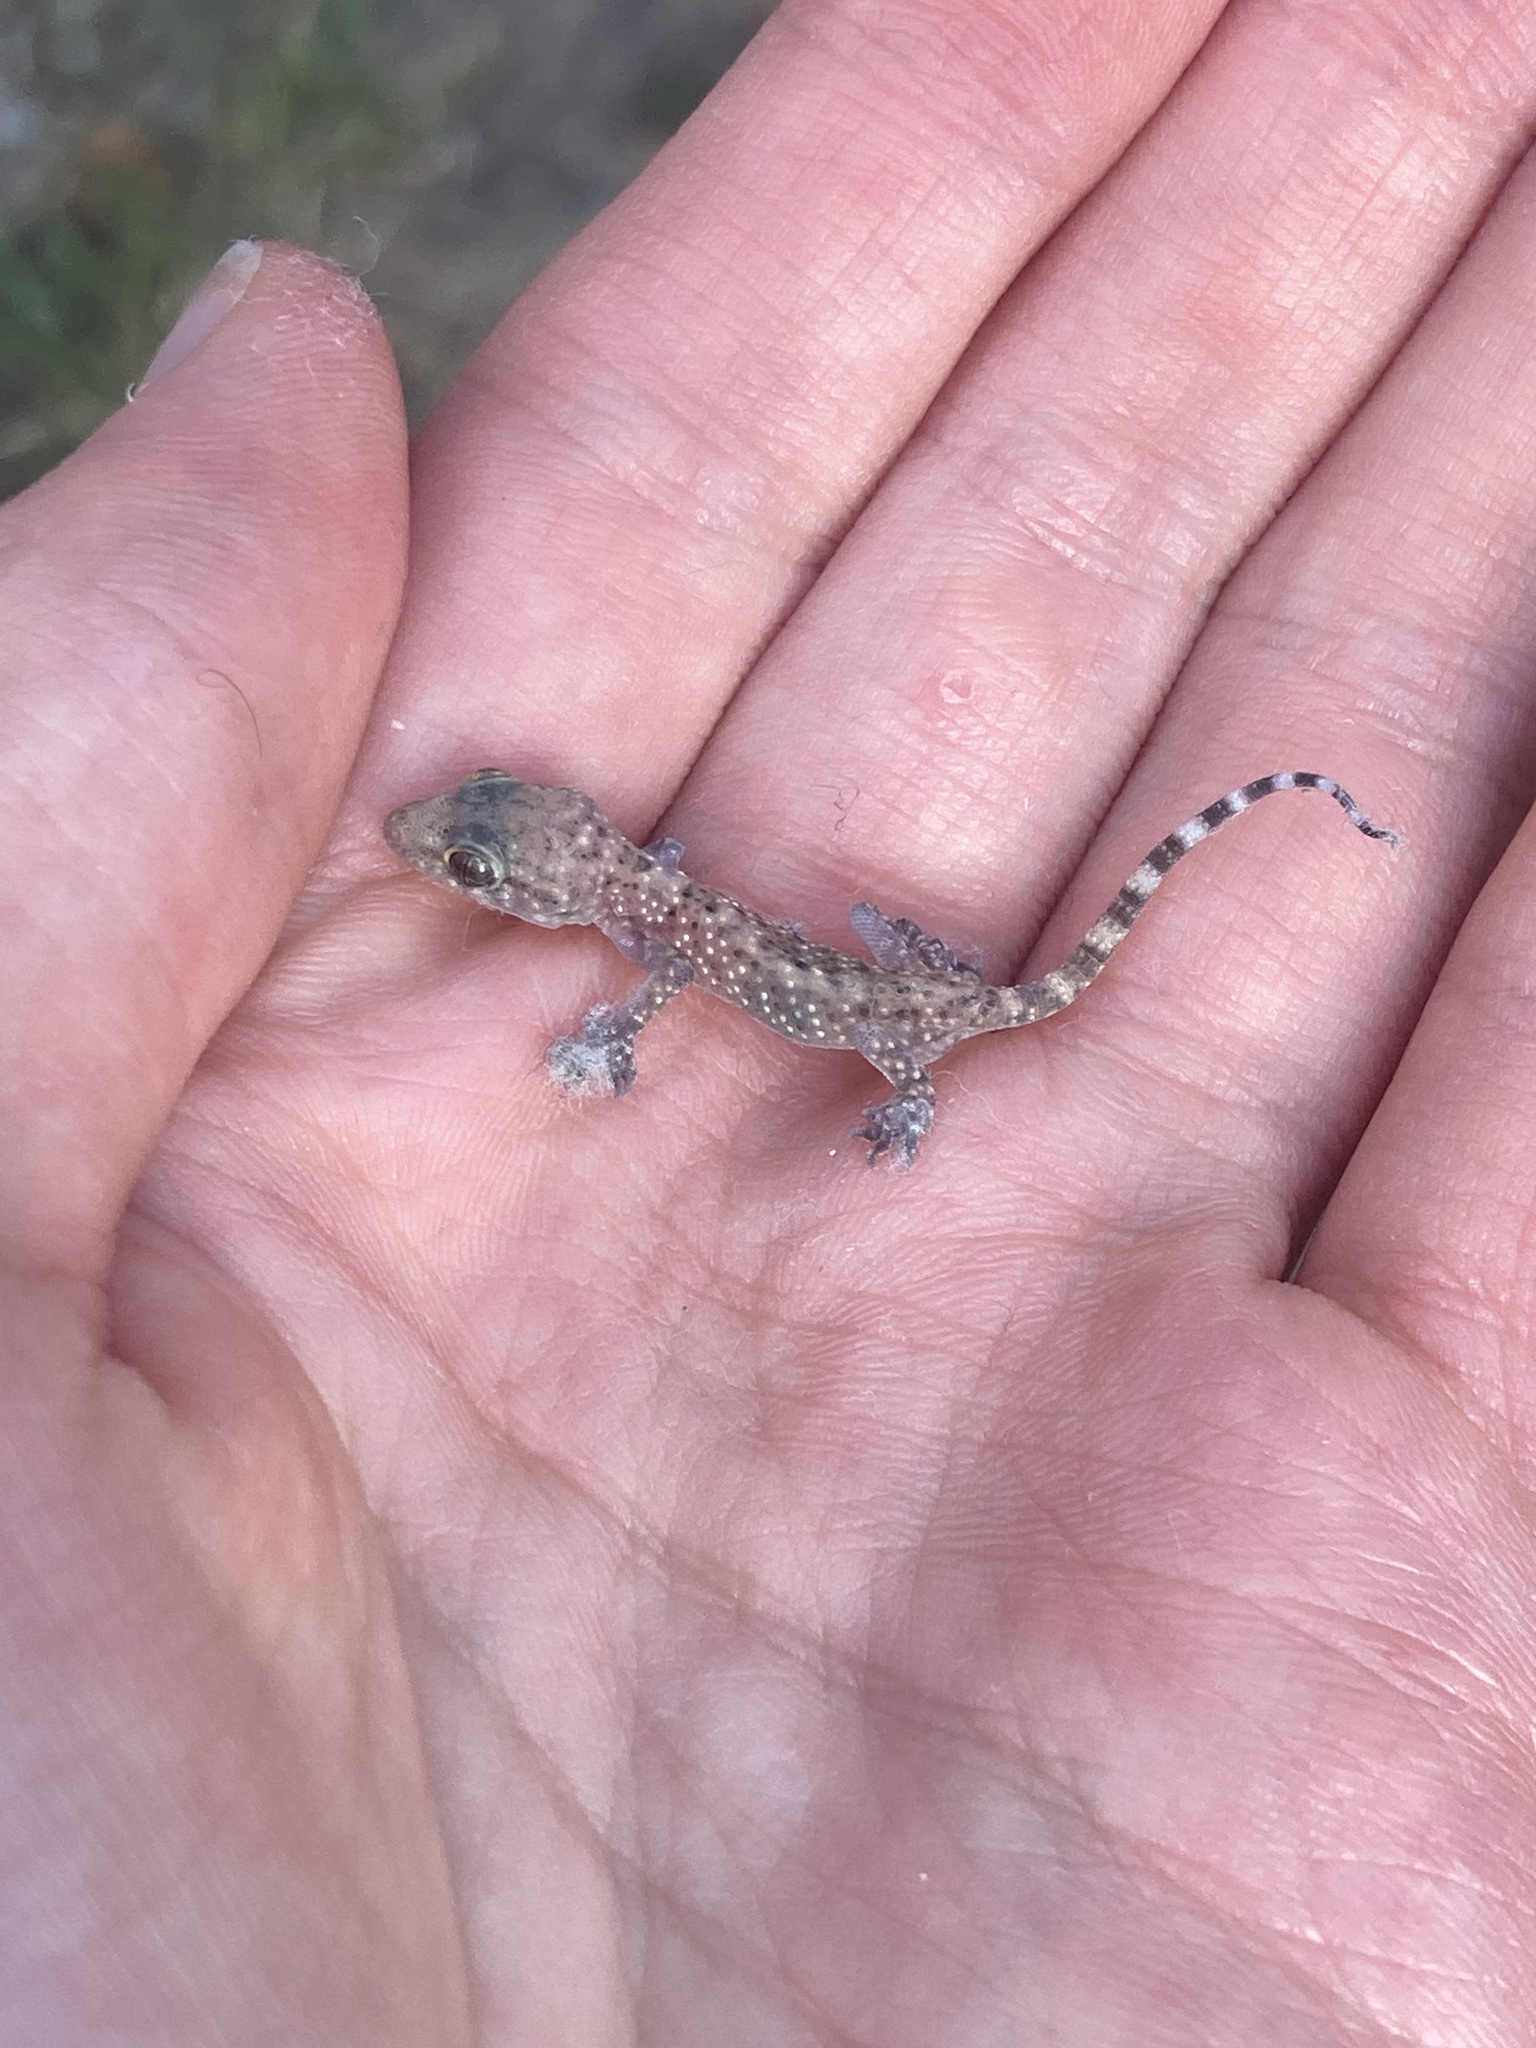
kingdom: Animalia
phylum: Chordata
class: Squamata
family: Gekkonidae
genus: Hemidactylus
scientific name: Hemidactylus turcicus
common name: Turkish gecko
